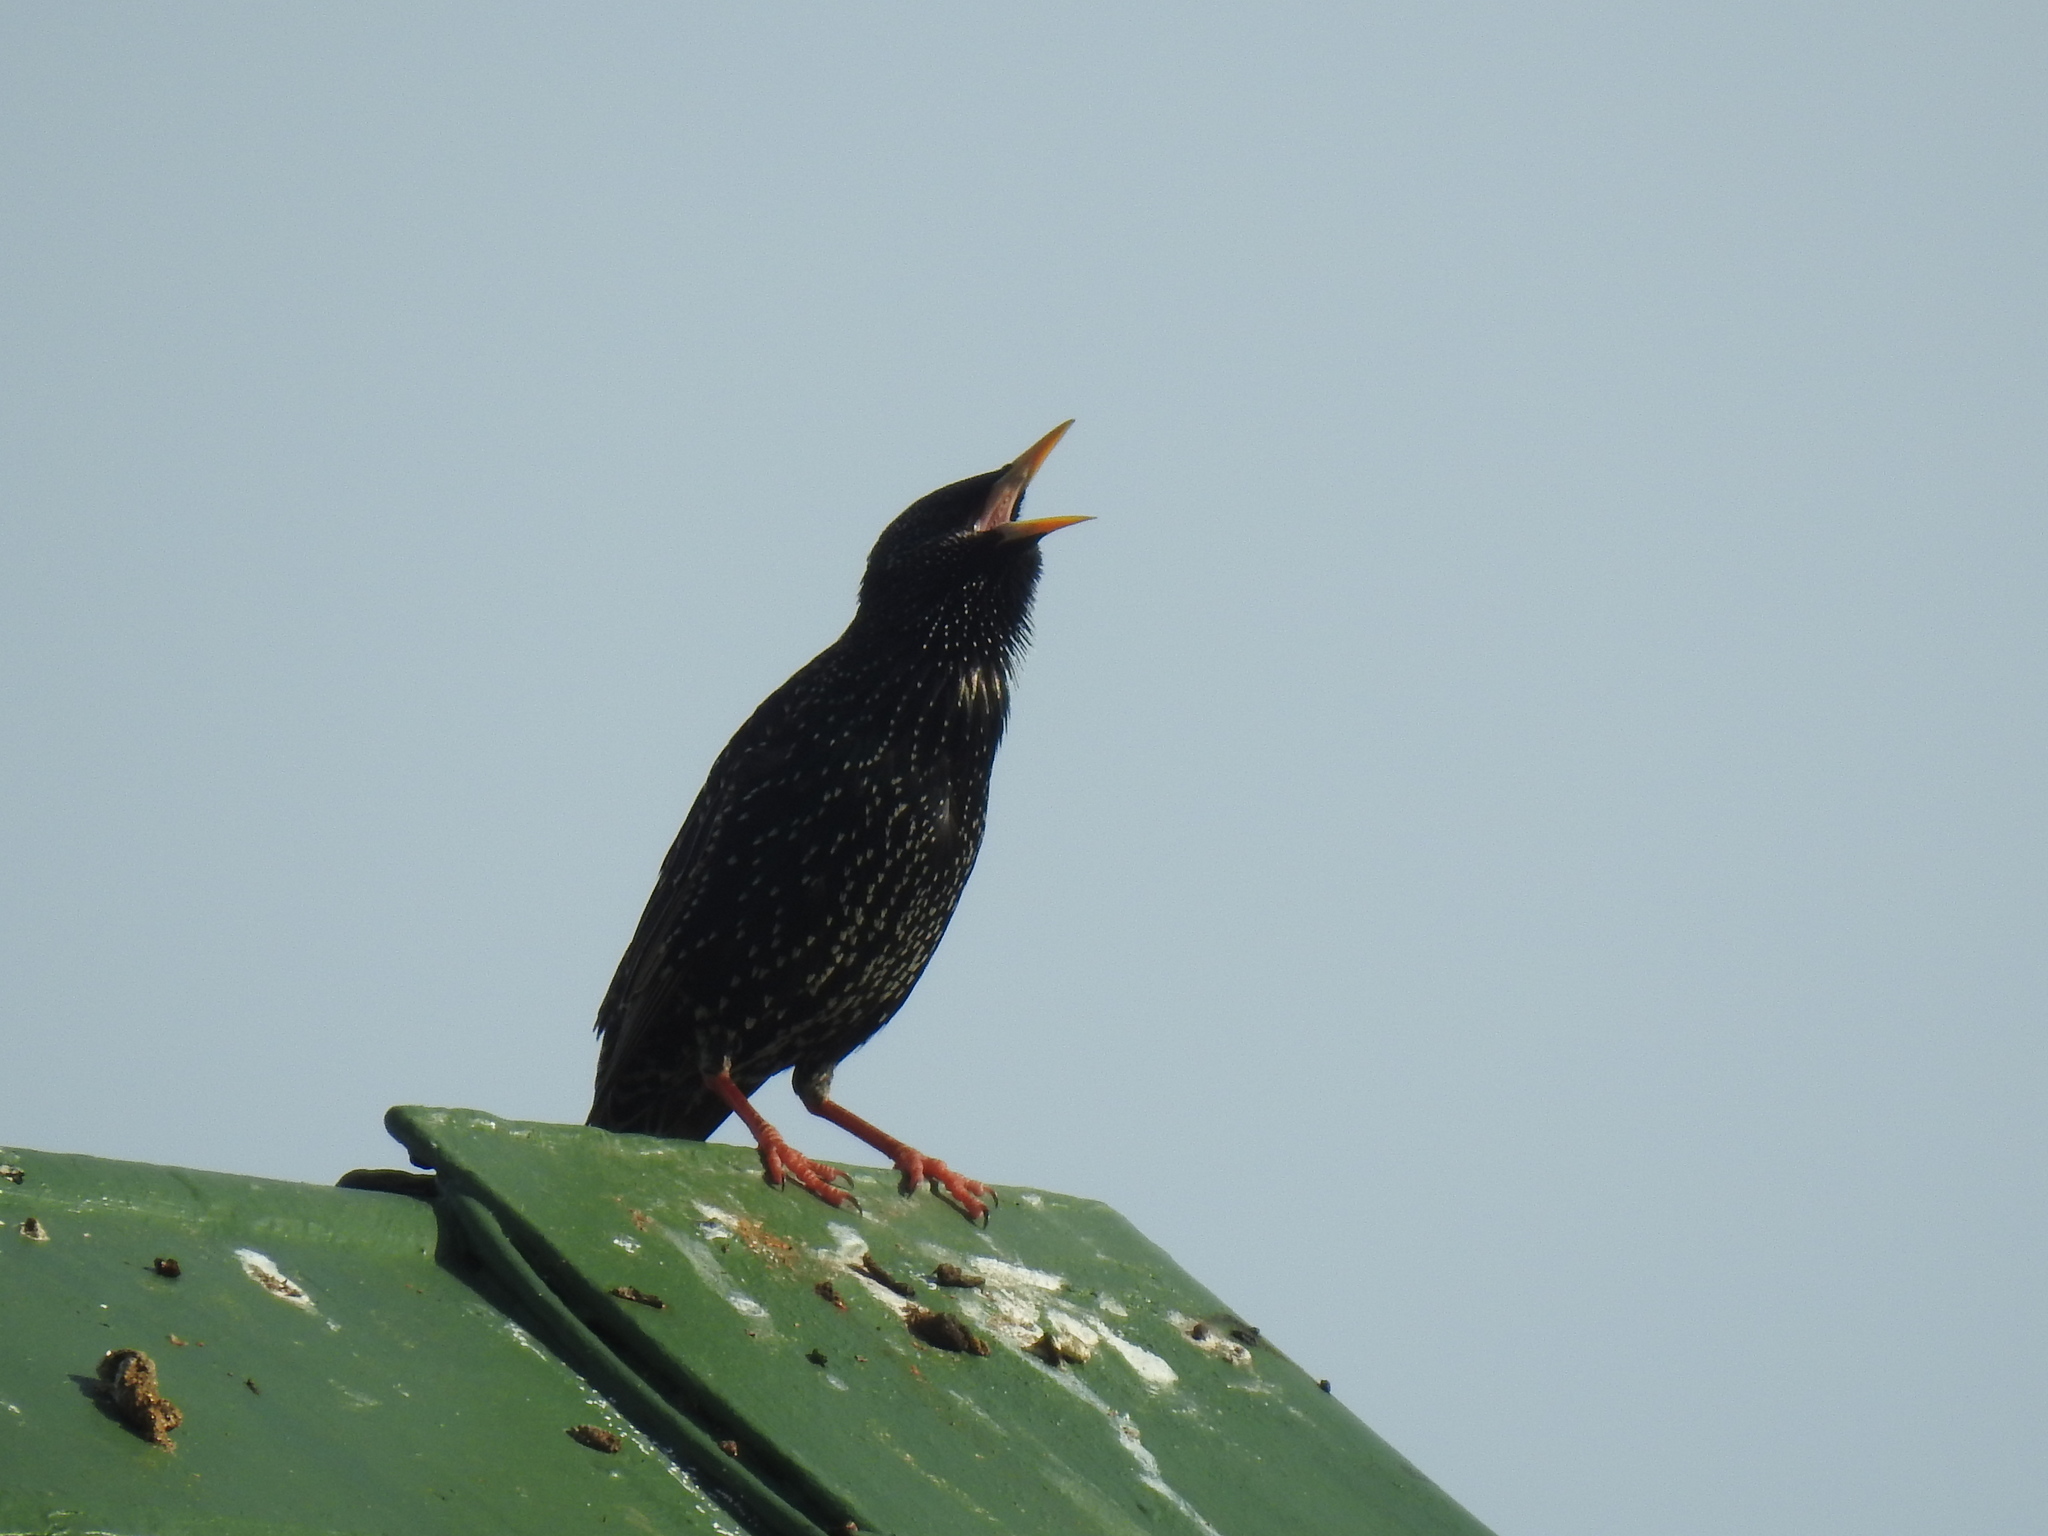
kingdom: Animalia
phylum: Chordata
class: Aves
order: Passeriformes
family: Sturnidae
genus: Sturnus
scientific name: Sturnus vulgaris
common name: Common starling
